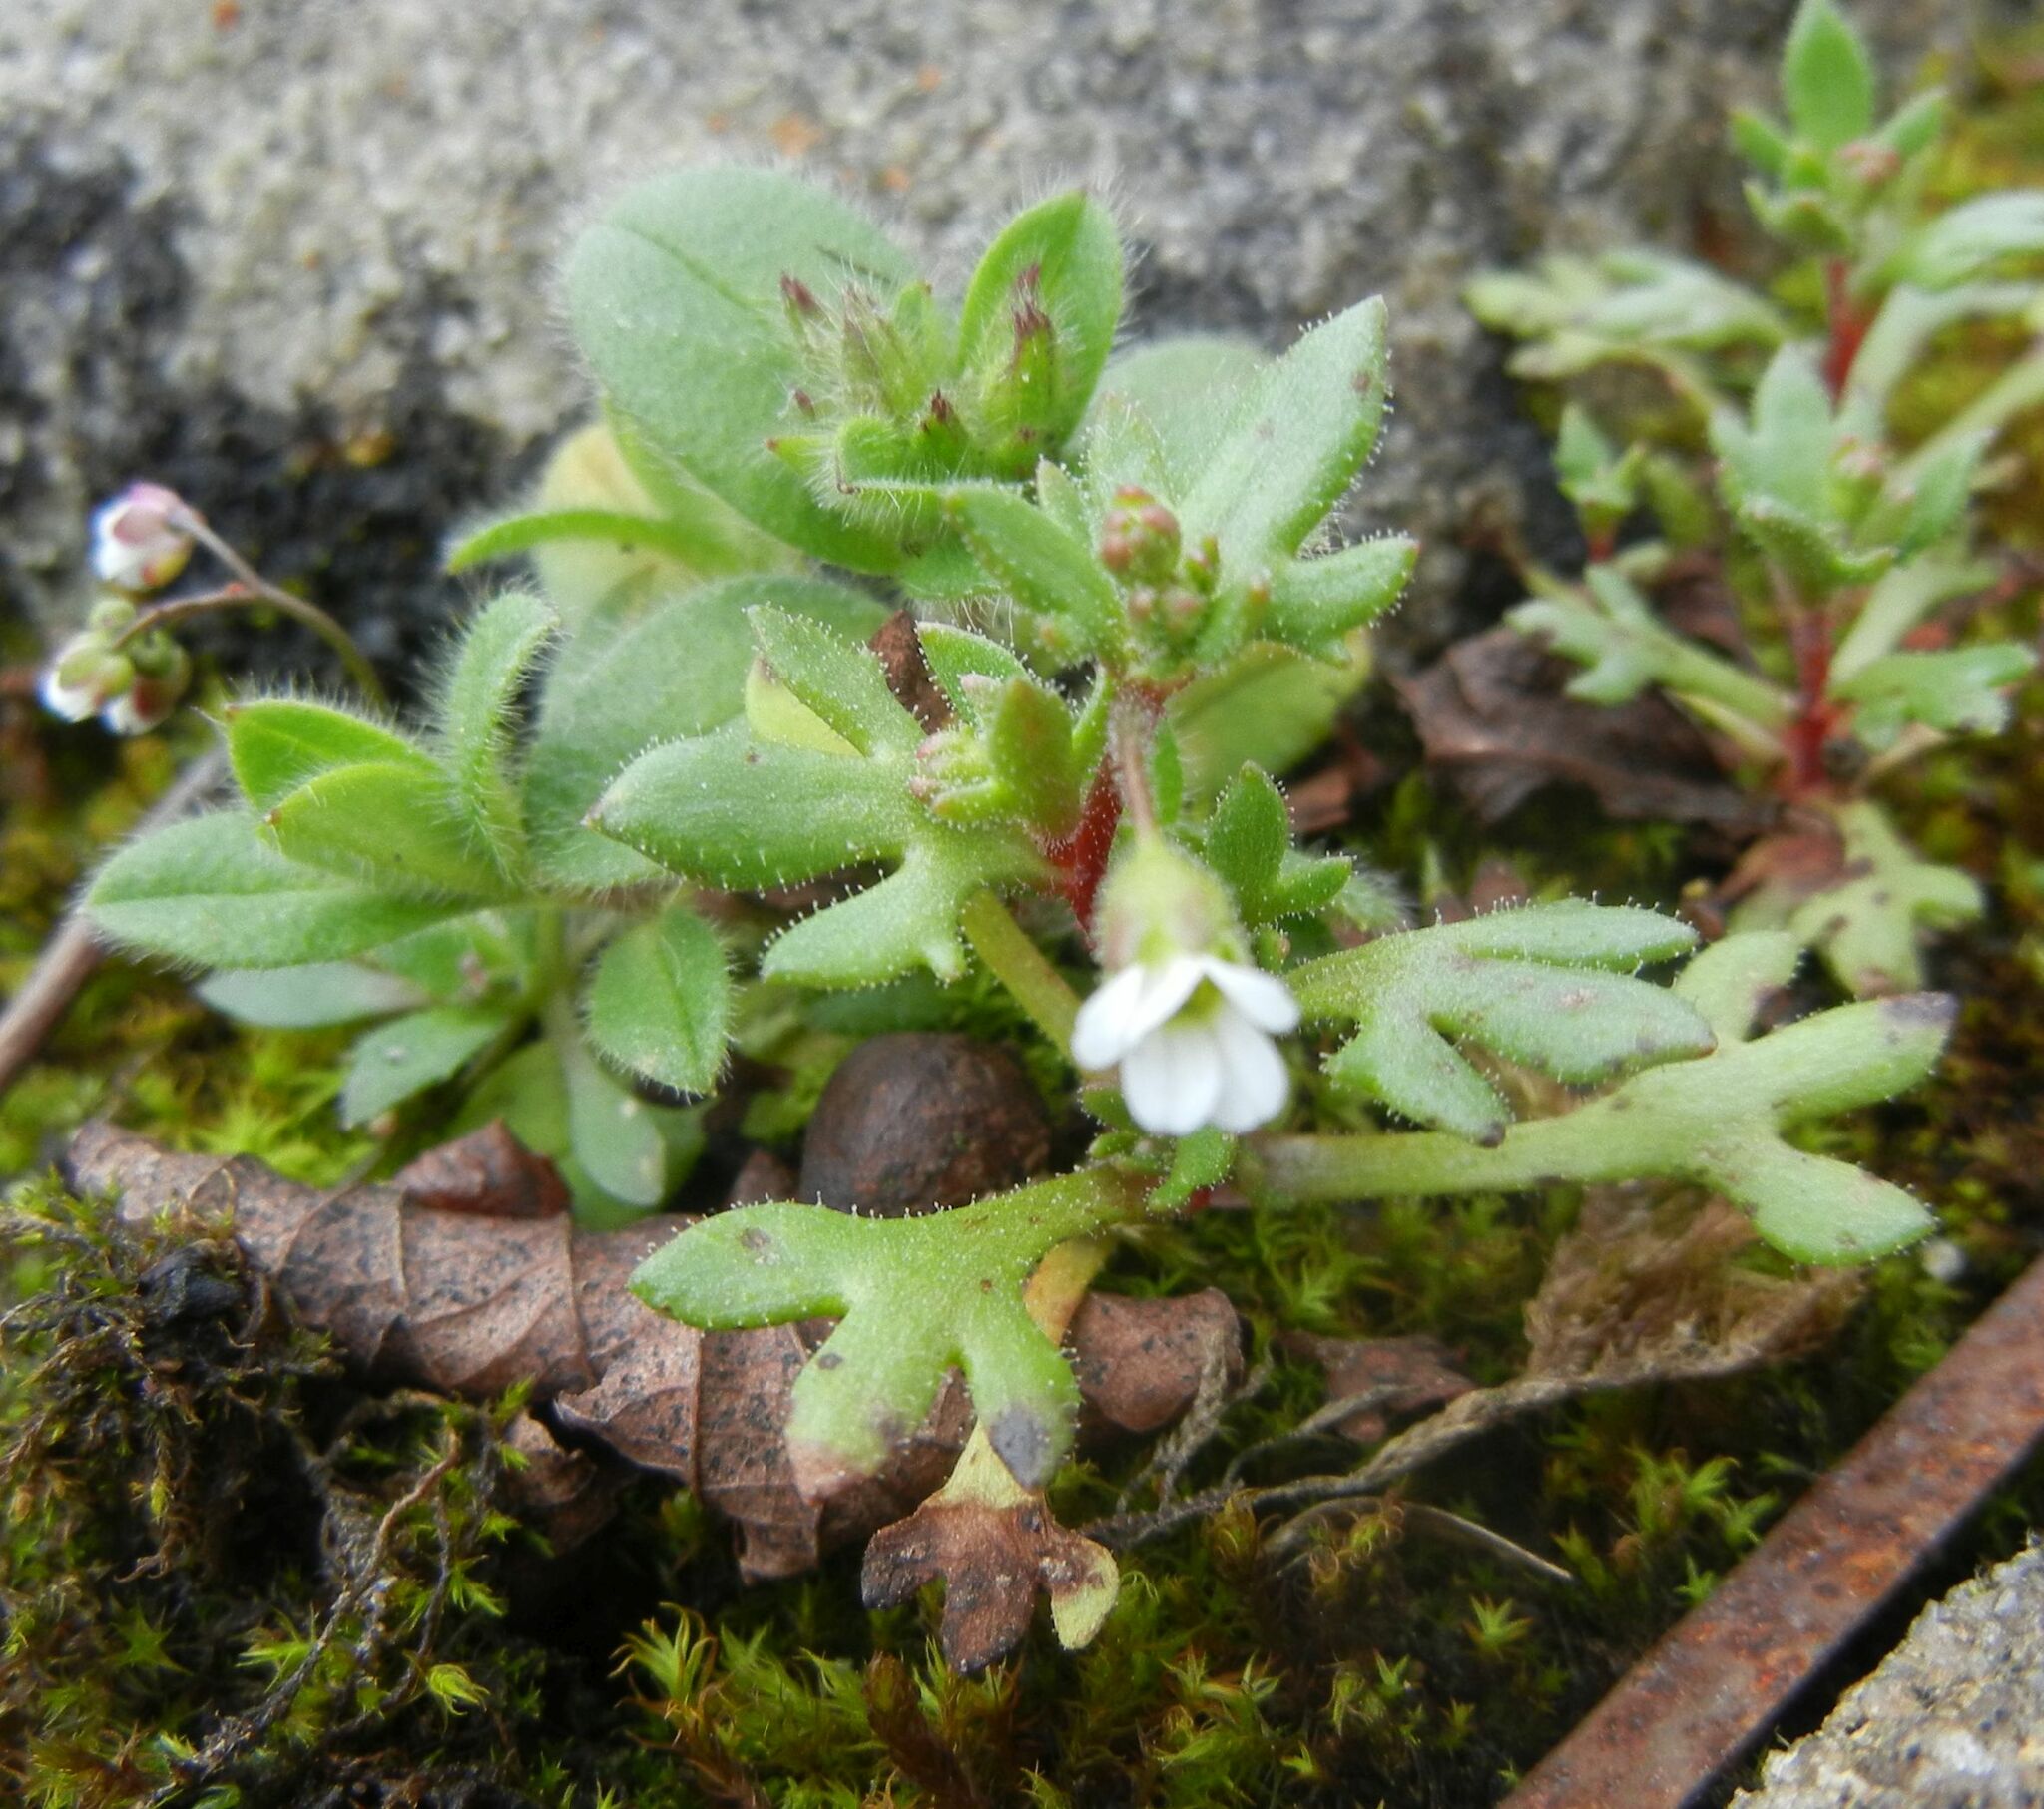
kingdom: Plantae
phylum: Tracheophyta
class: Magnoliopsida
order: Saxifragales
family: Saxifragaceae
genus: Saxifraga
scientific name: Saxifraga tridactylites
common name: Rue-leaved saxifrage
